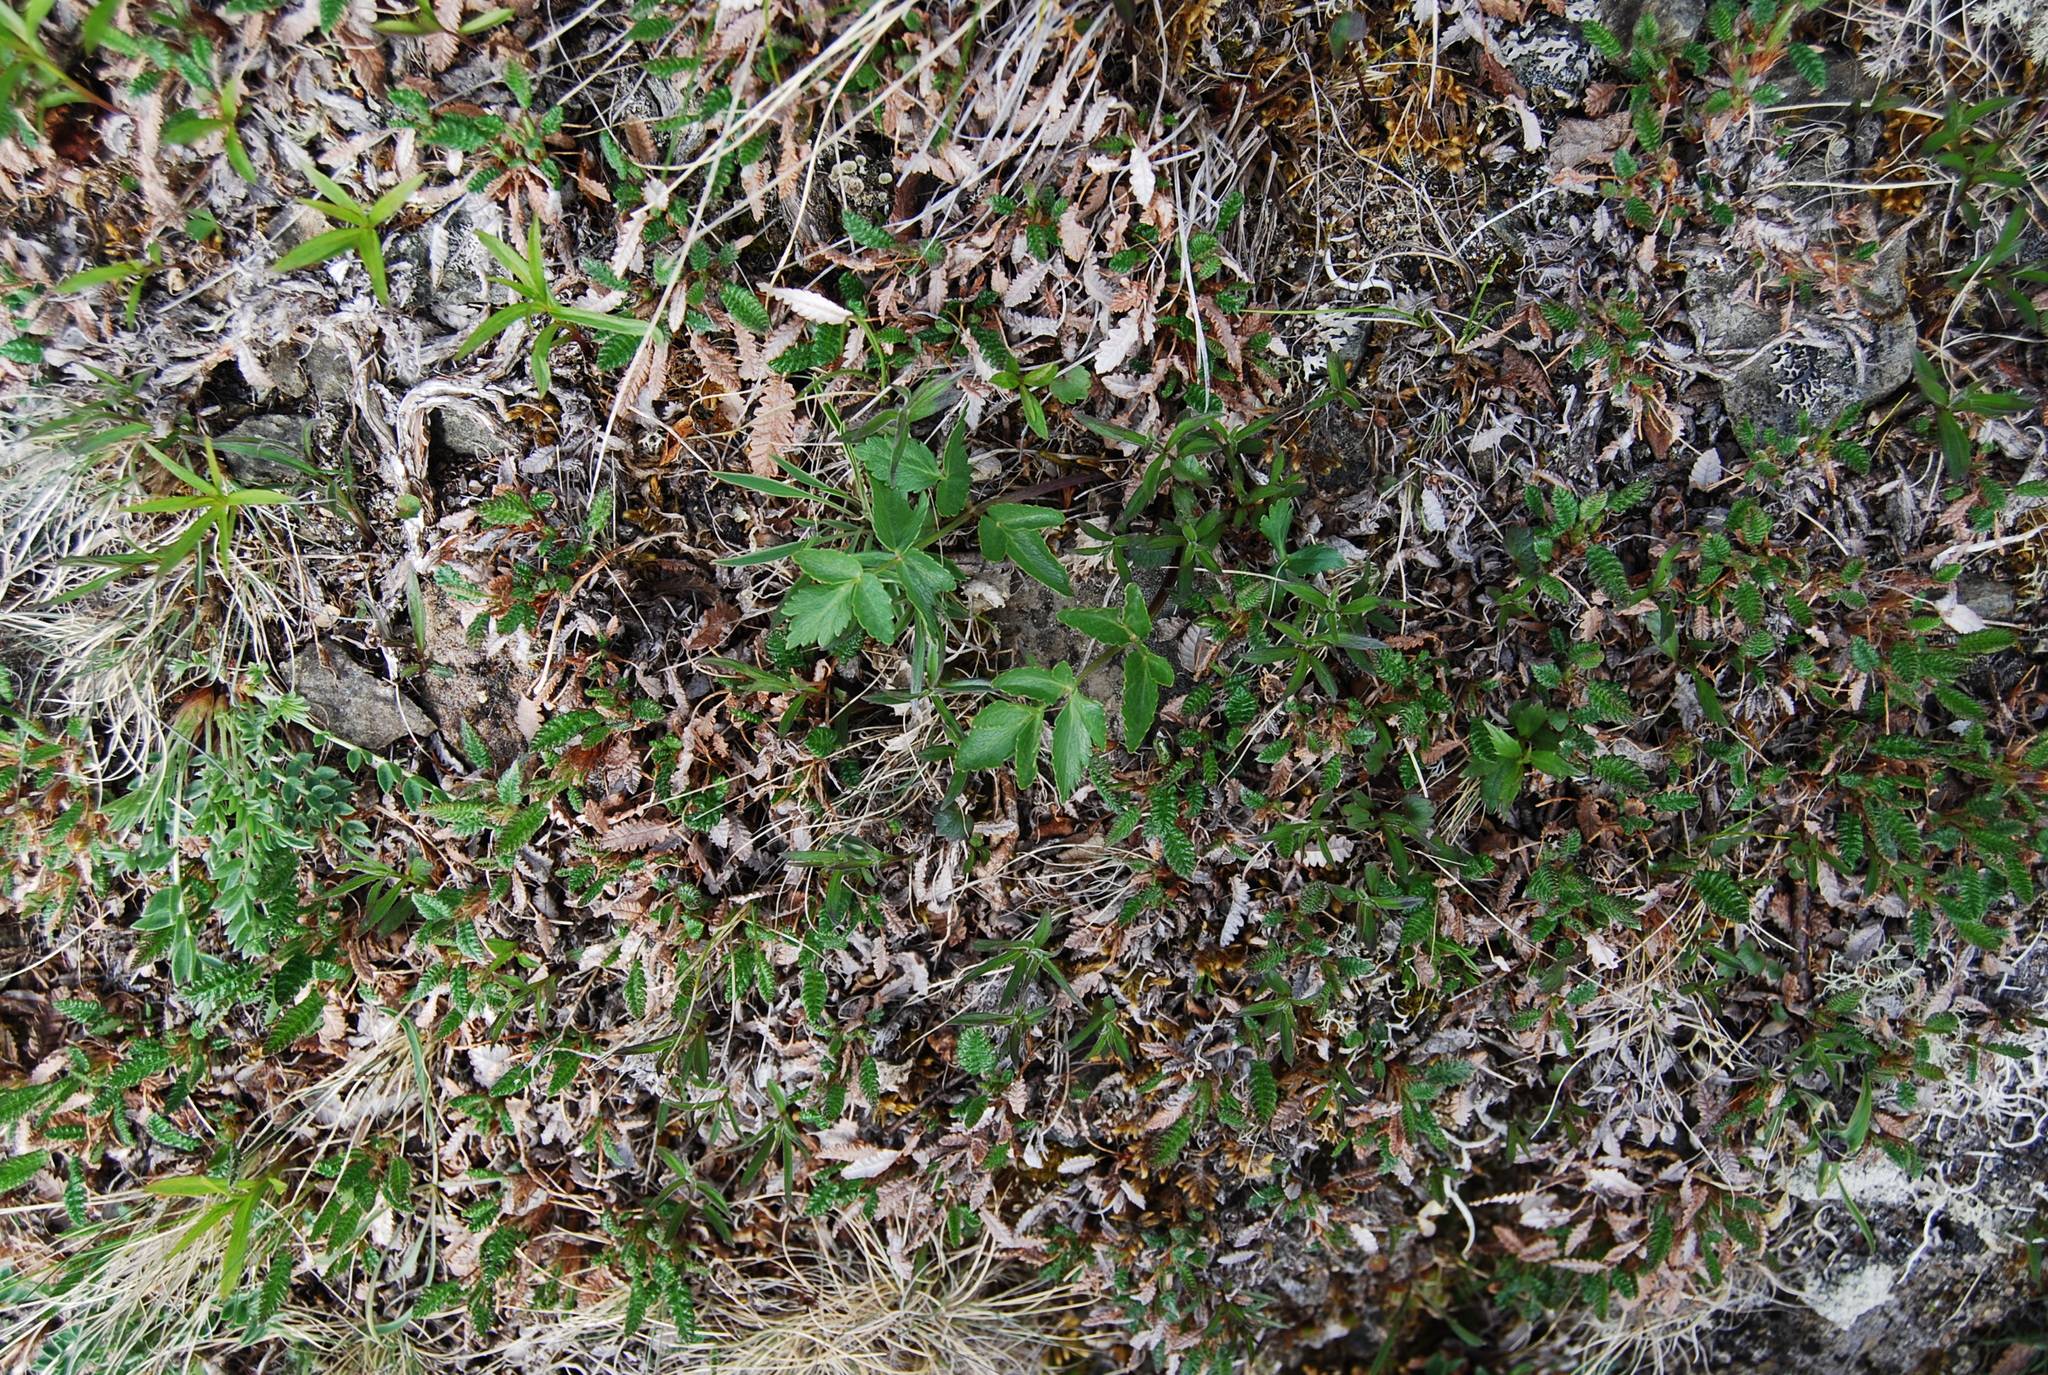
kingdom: Plantae
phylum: Tracheophyta
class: Magnoliopsida
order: Apiales
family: Apiaceae
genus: Magadania
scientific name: Magadania olaensis
